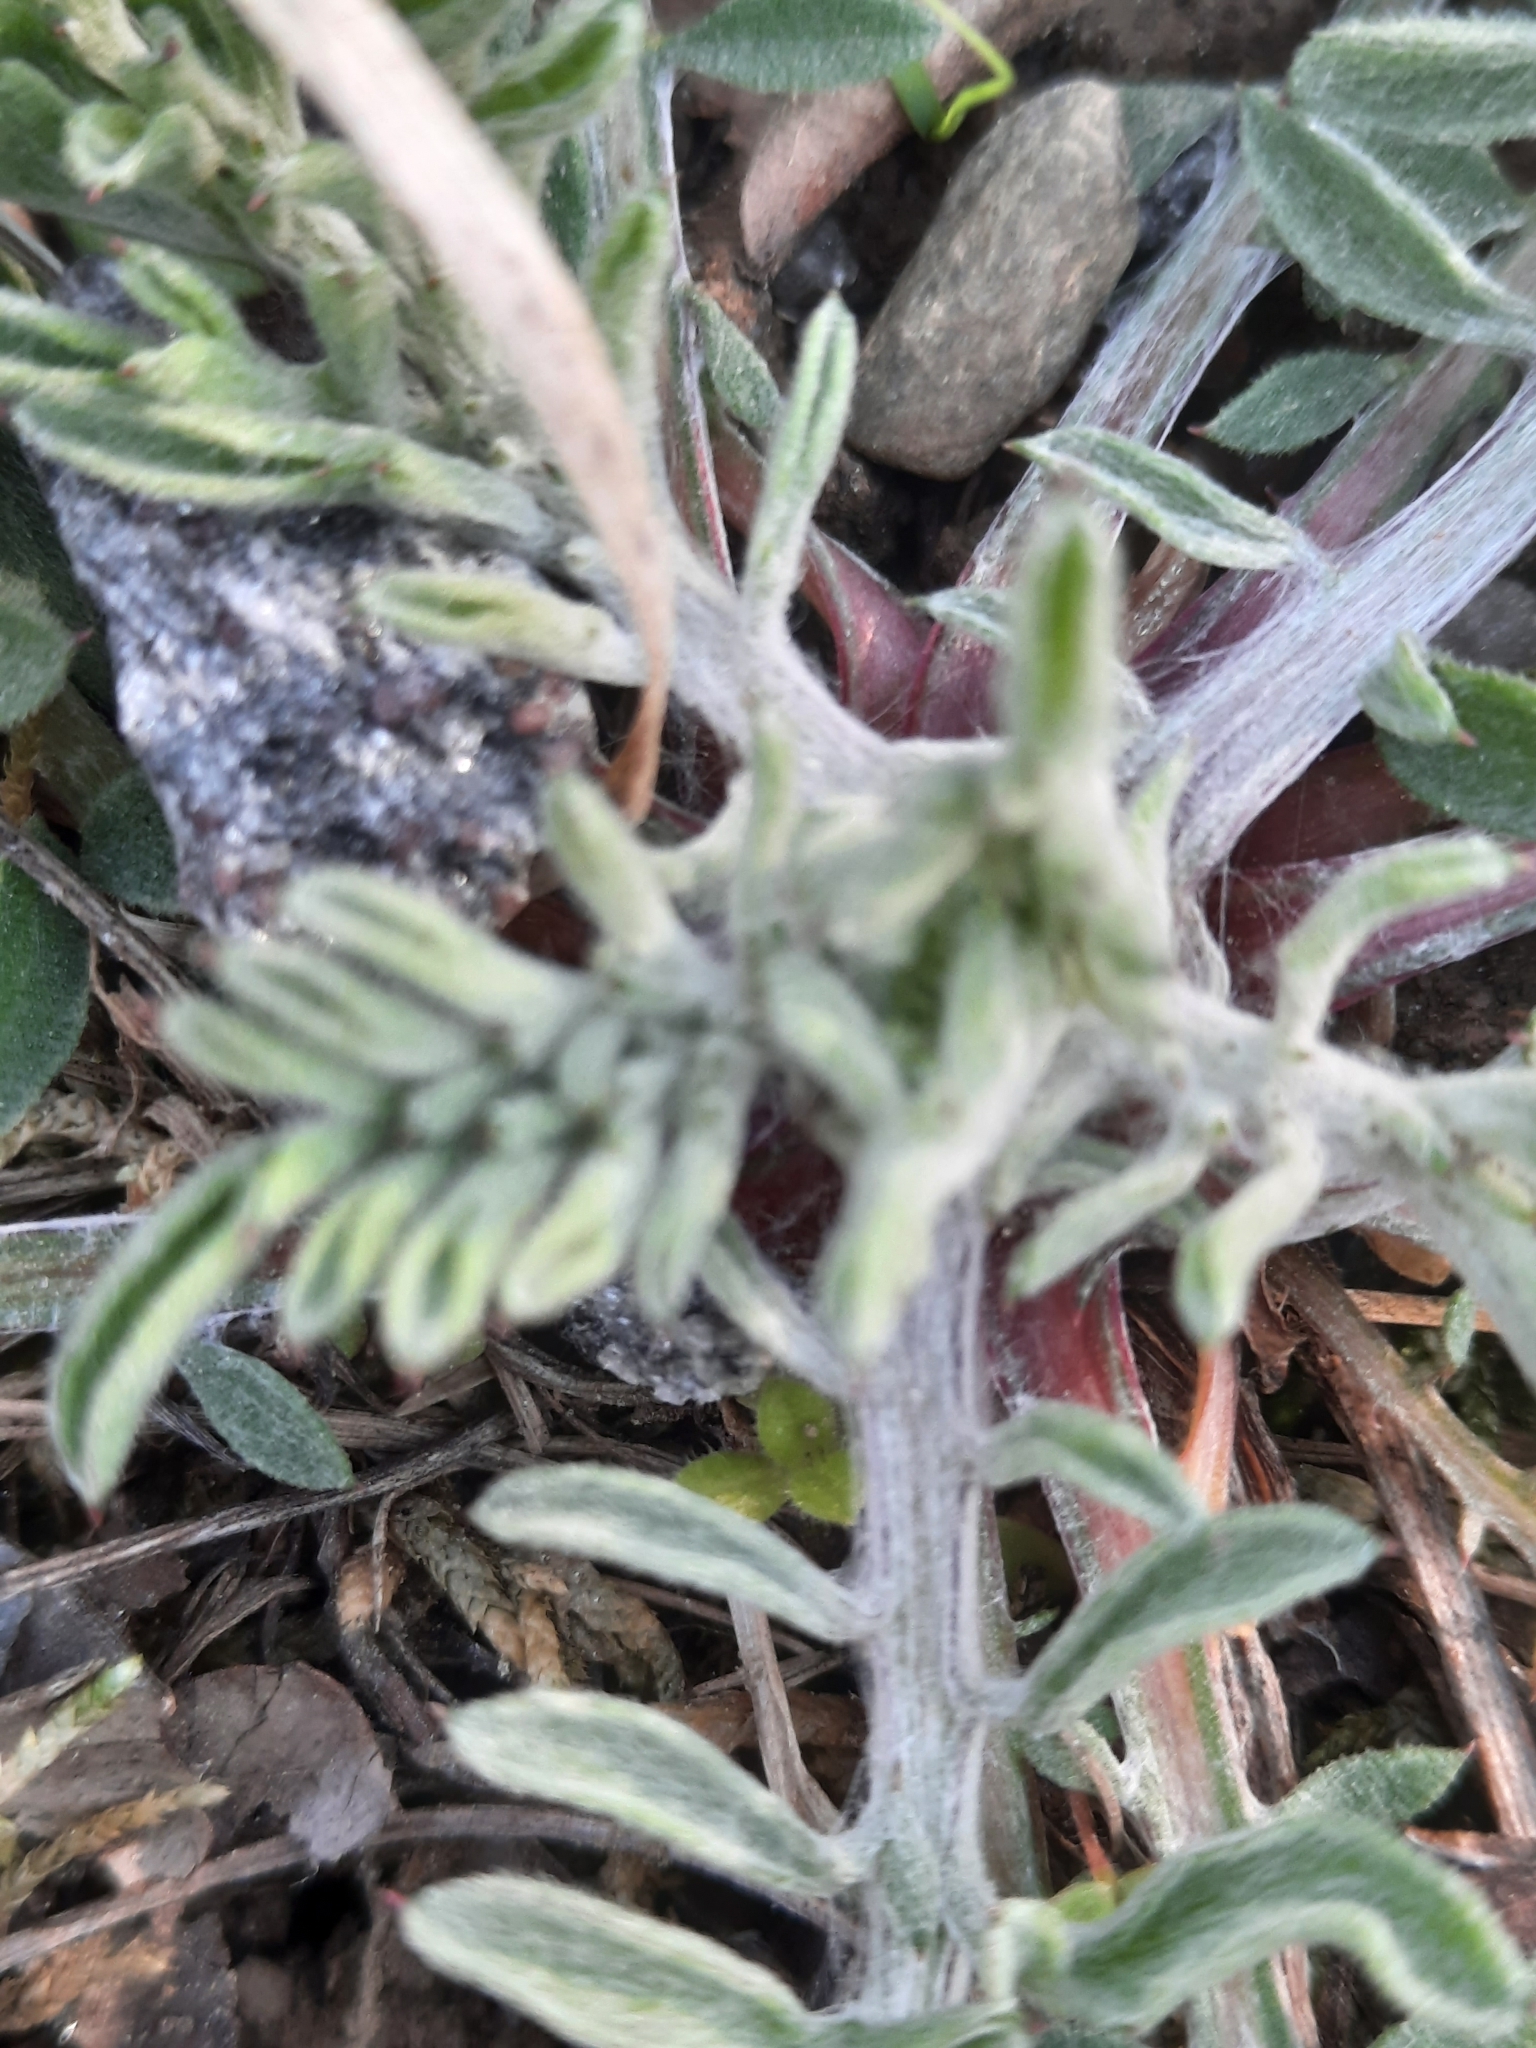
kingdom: Plantae
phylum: Tracheophyta
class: Magnoliopsida
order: Asterales
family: Asteraceae
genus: Centaurea
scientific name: Centaurea stoebe
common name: Spotted knapweed
